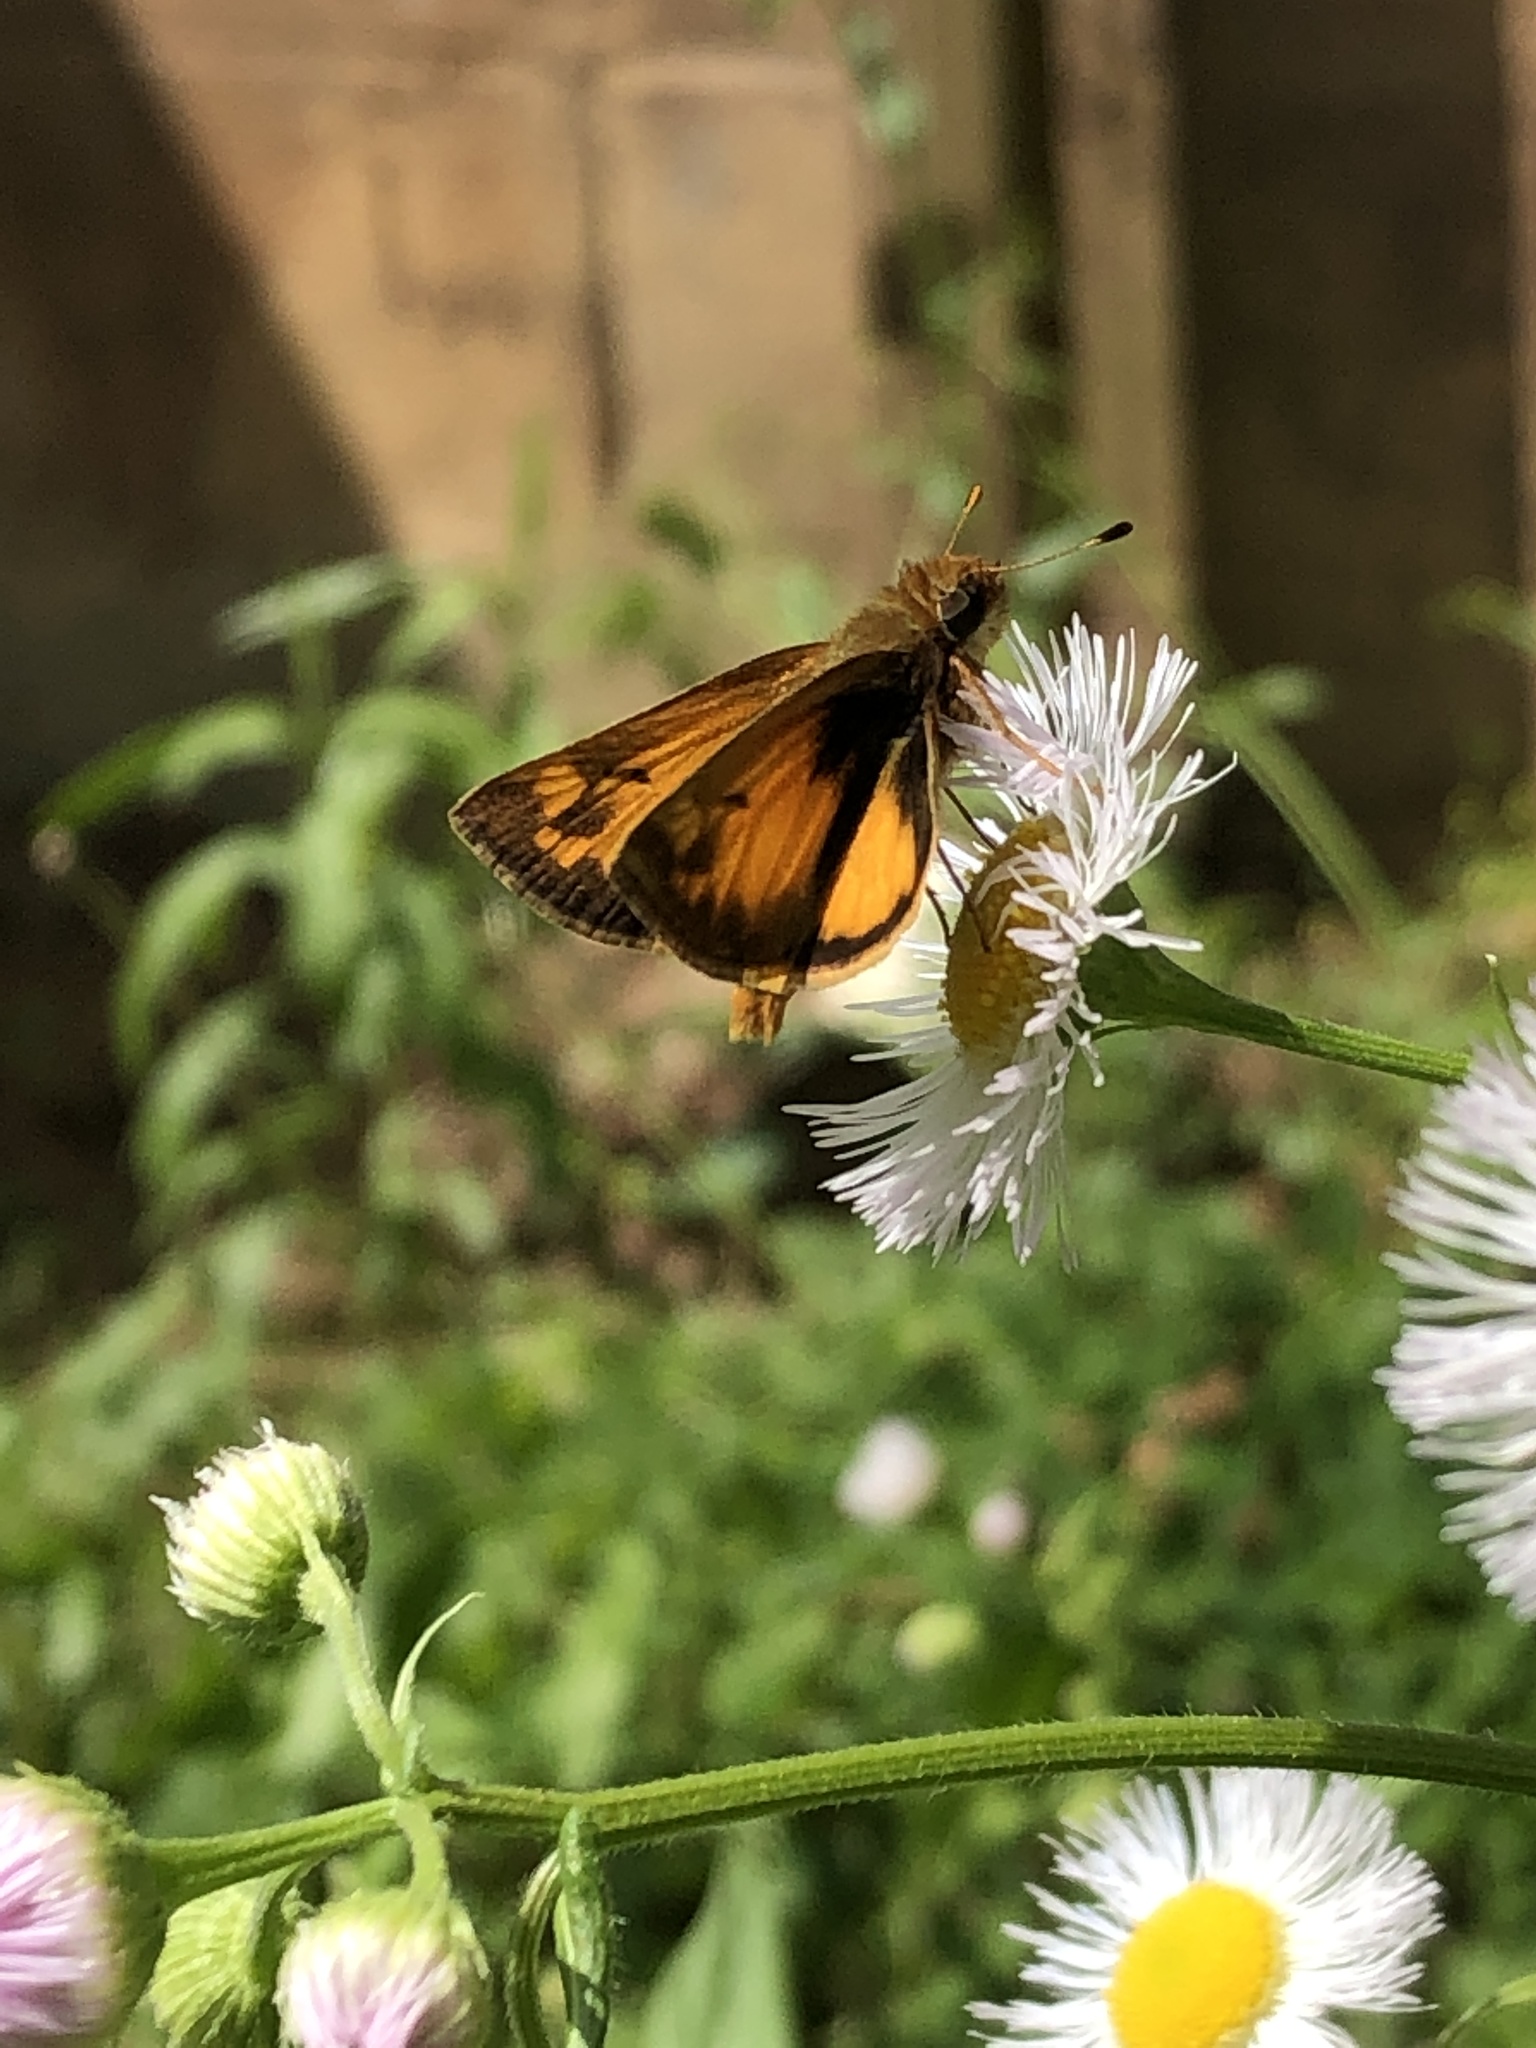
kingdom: Animalia
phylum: Arthropoda
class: Insecta
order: Lepidoptera
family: Hesperiidae
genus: Lon
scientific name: Lon zabulon
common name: Zabulon skipper
